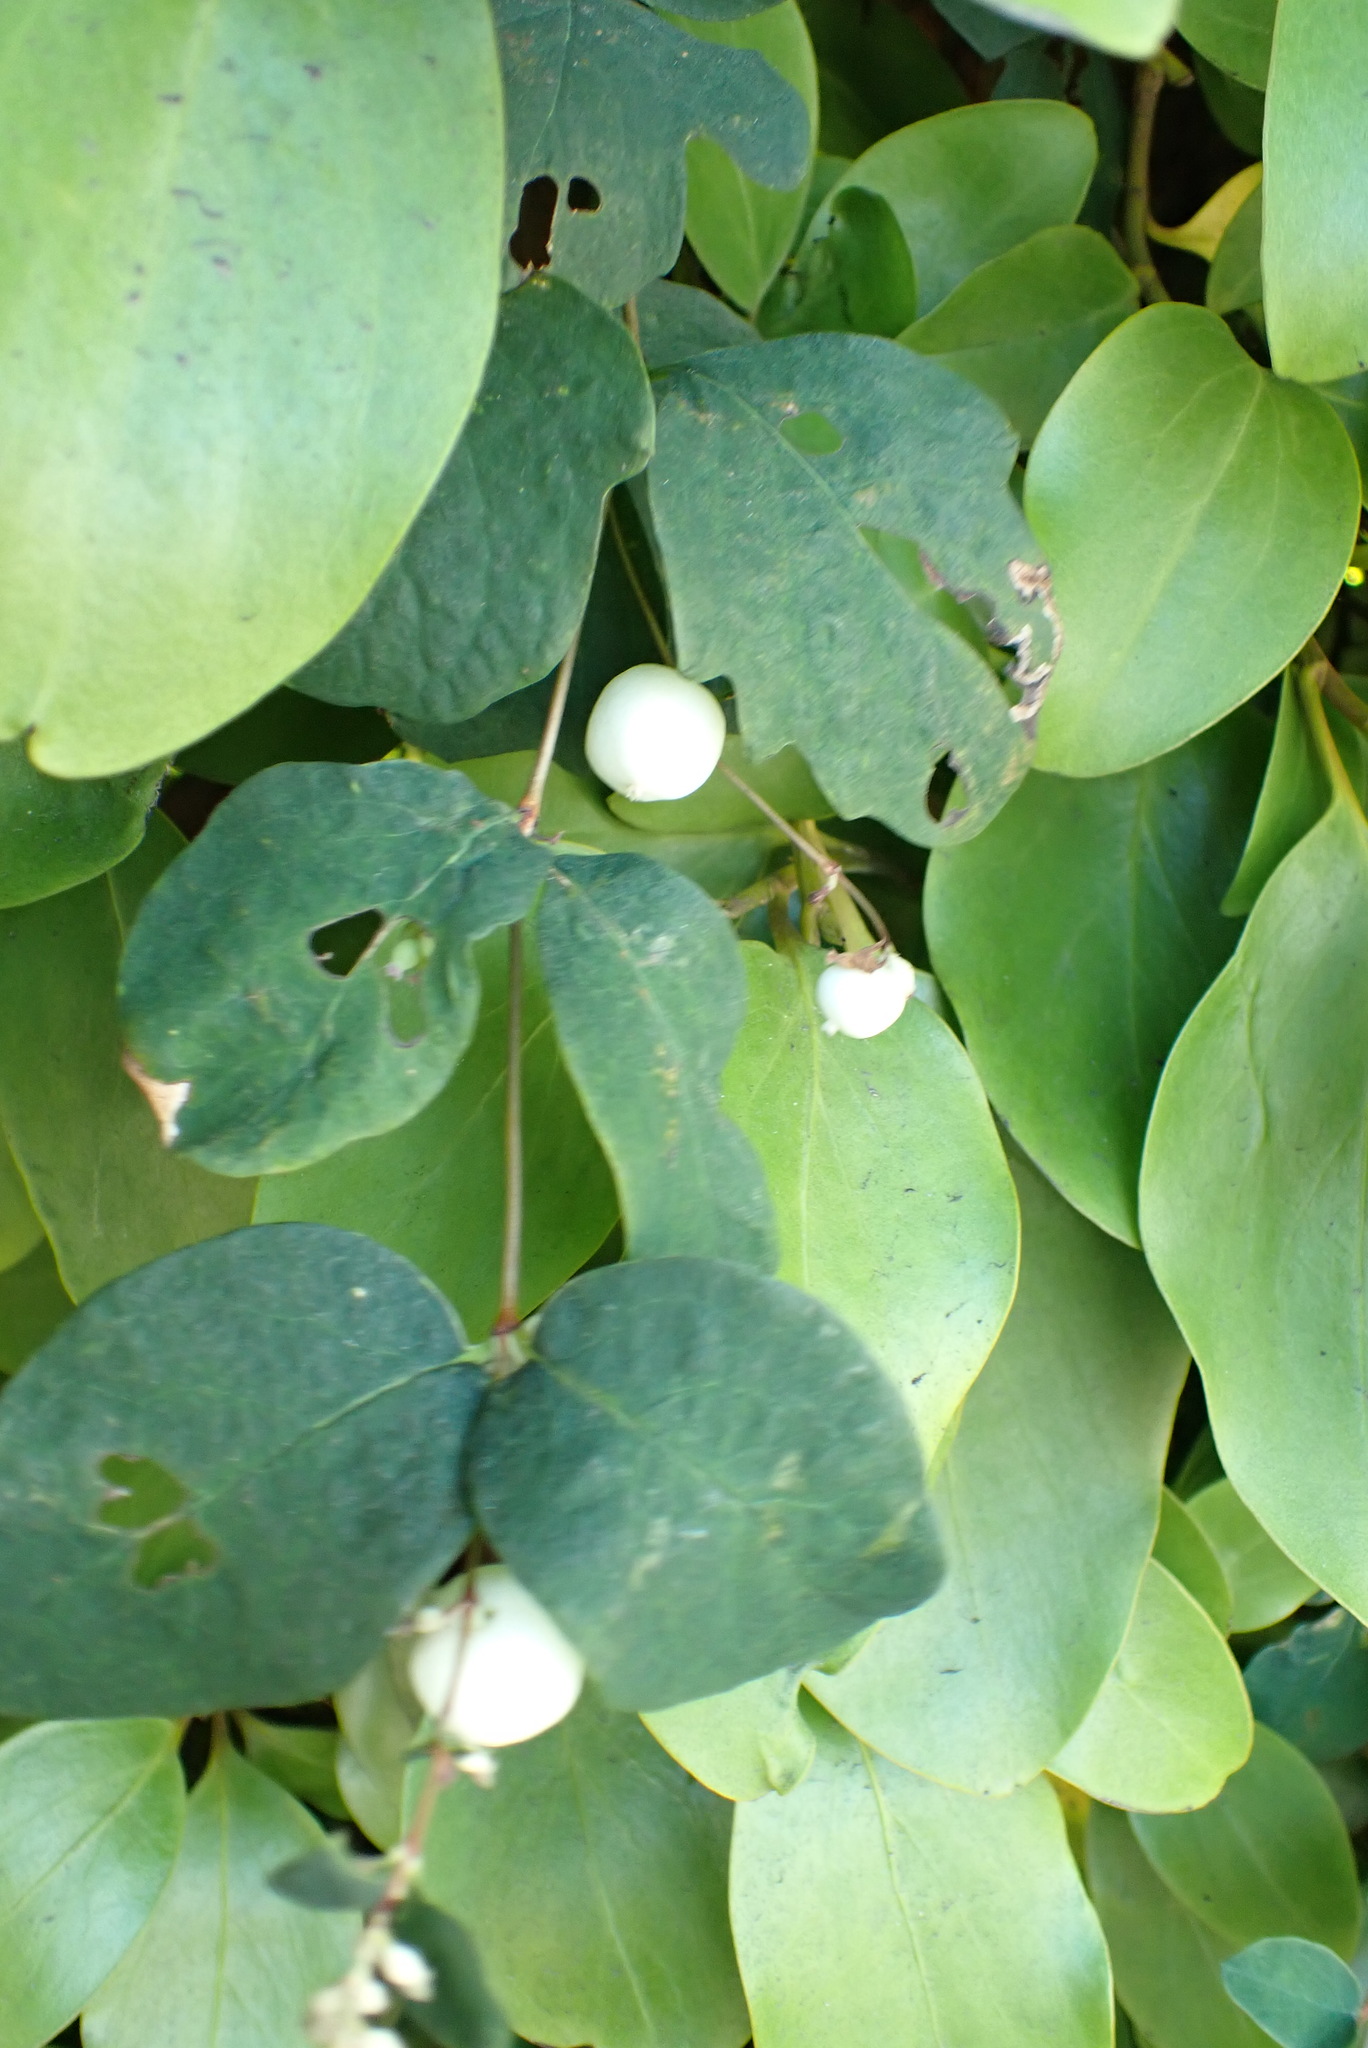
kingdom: Plantae
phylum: Tracheophyta
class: Magnoliopsida
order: Dipsacales
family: Caprifoliaceae
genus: Symphoricarpos
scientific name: Symphoricarpos albus
